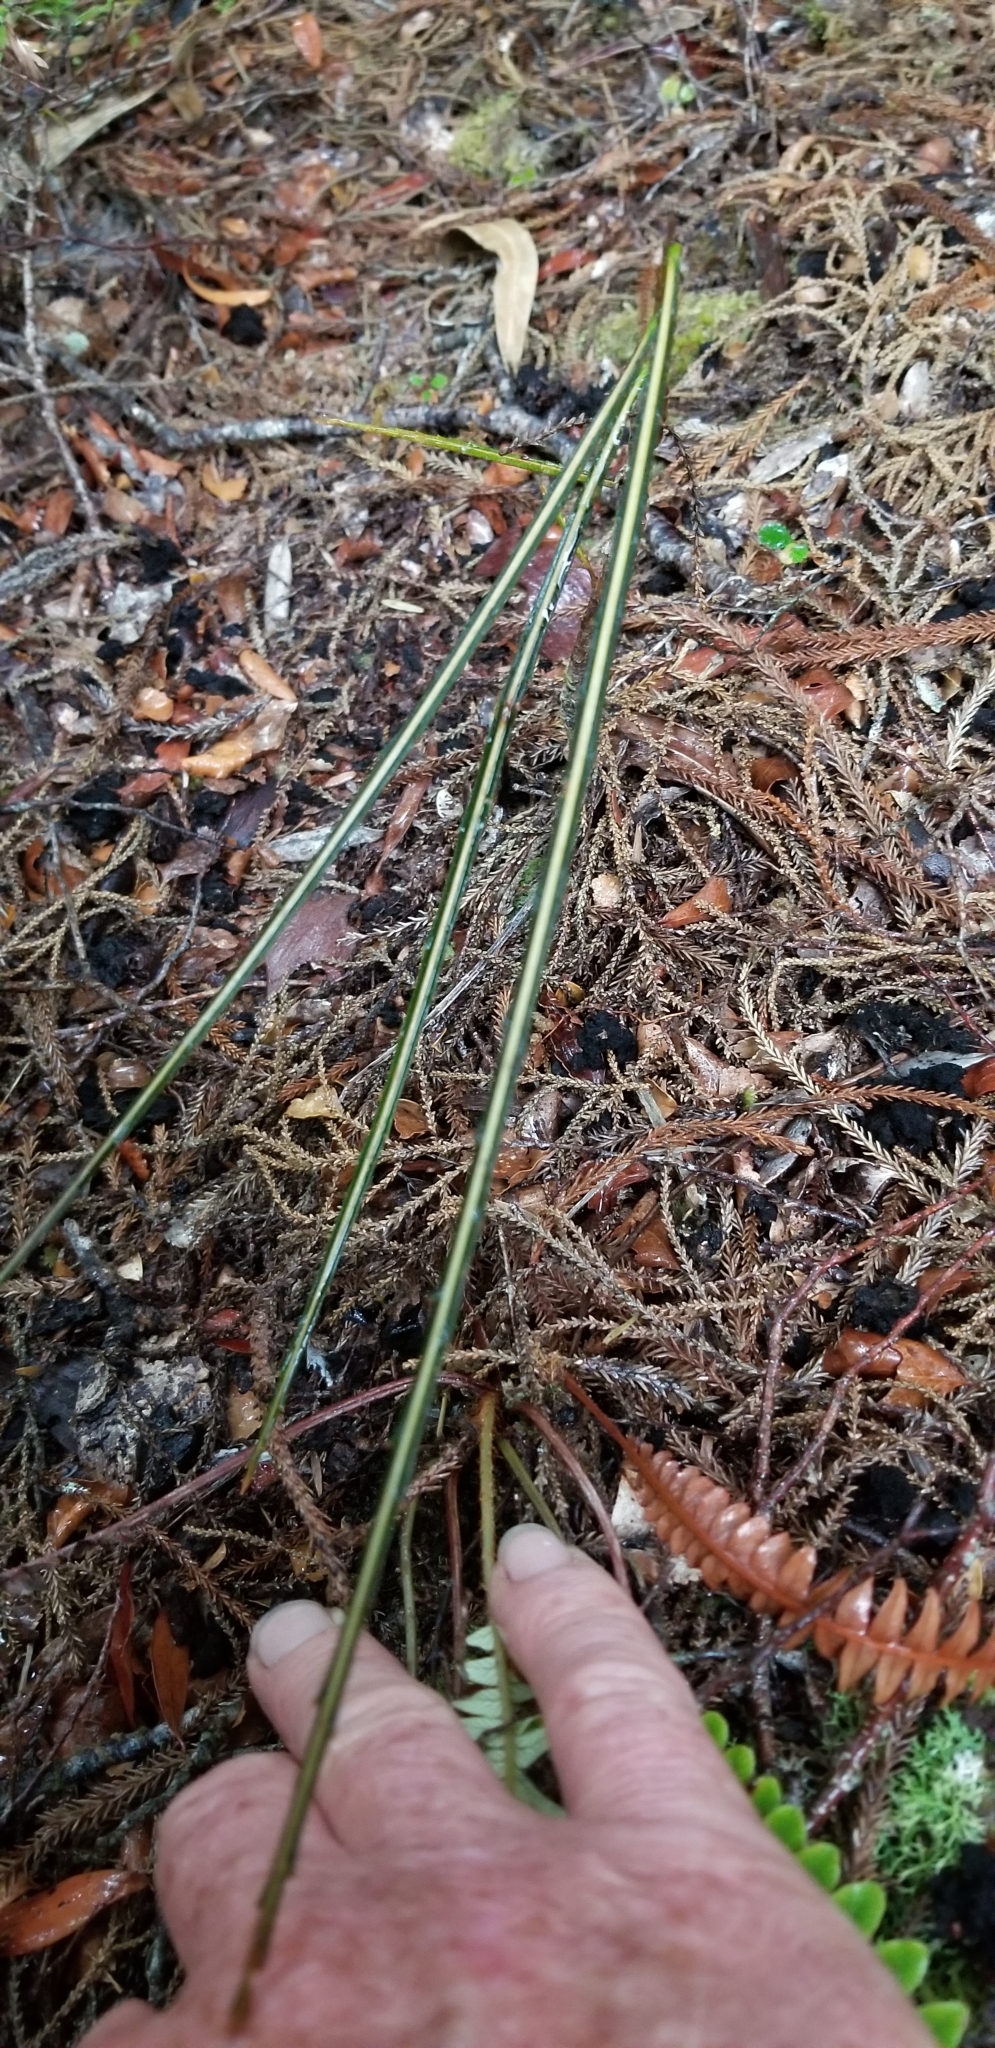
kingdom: Plantae
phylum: Tracheophyta
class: Magnoliopsida
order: Apiales
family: Araliaceae
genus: Pseudopanax
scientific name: Pseudopanax crassifolius
